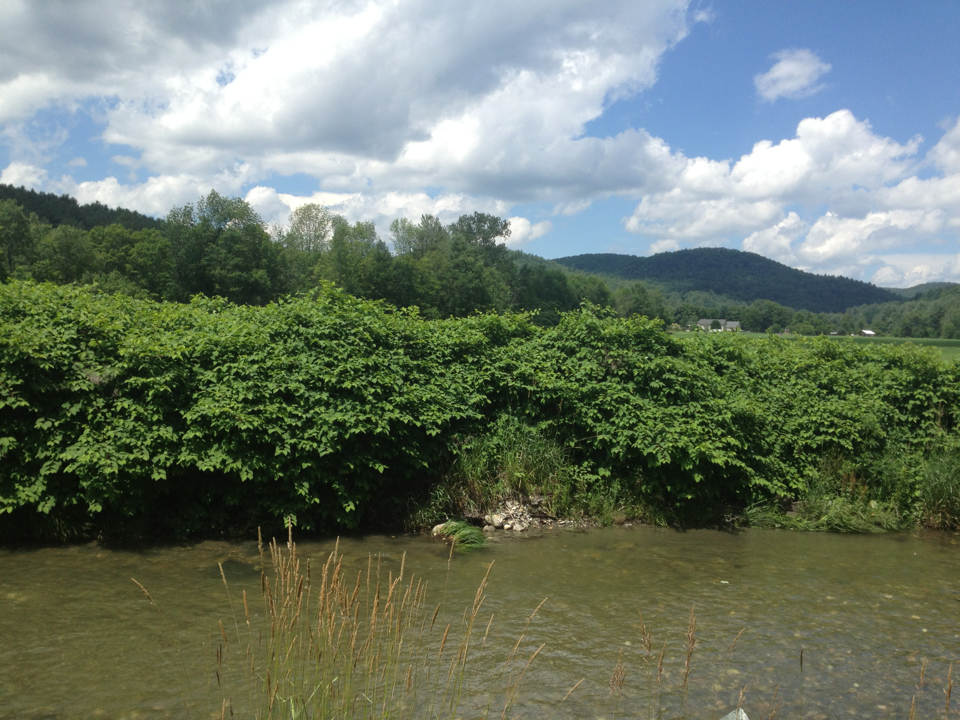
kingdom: Plantae
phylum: Tracheophyta
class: Magnoliopsida
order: Caryophyllales
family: Polygonaceae
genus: Reynoutria
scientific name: Reynoutria japonica
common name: Japanese knotweed
